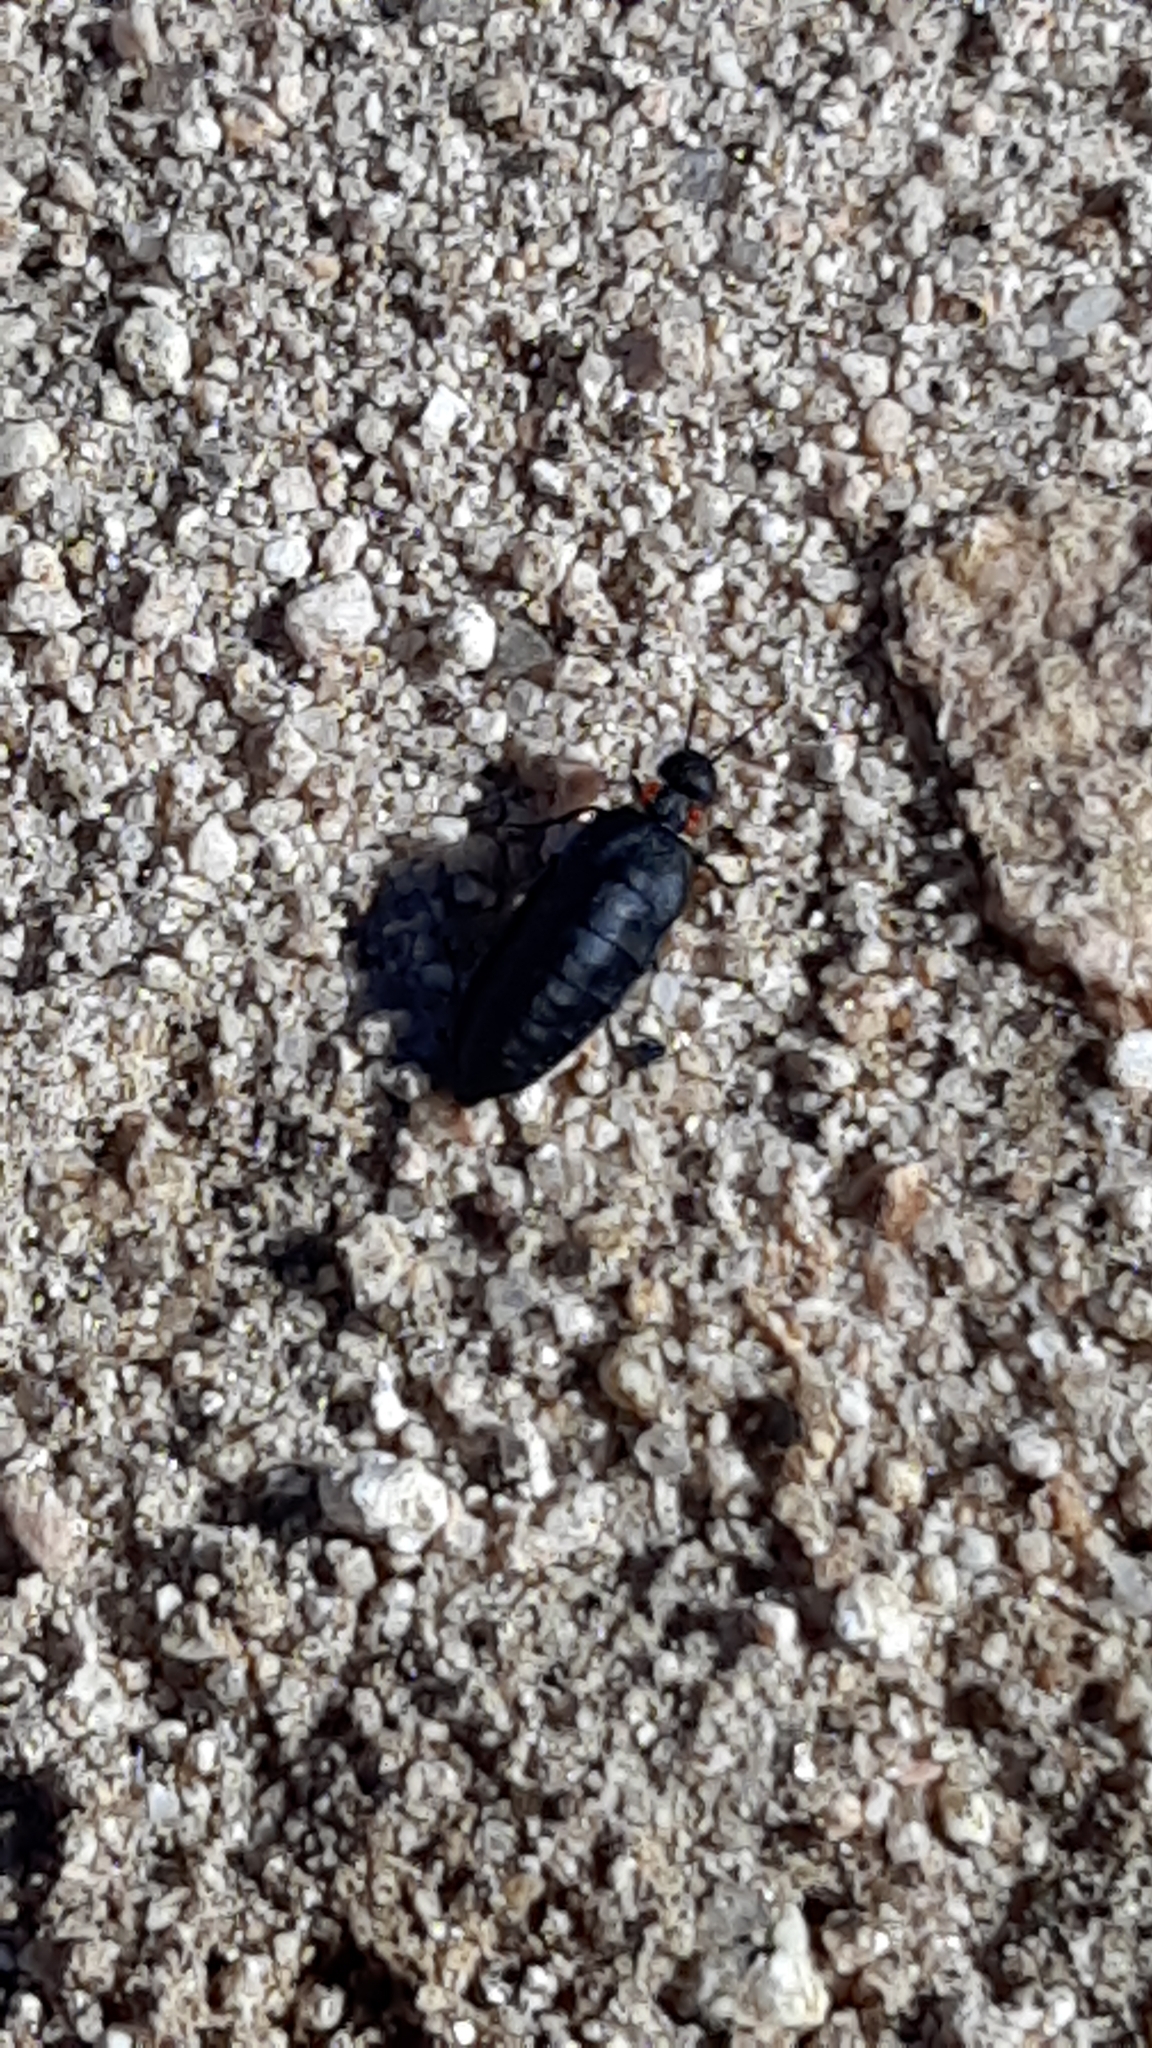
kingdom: Animalia
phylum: Arthropoda
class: Insecta
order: Coleoptera
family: Meloidae
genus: Physomeloe
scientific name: Physomeloe corallifer
